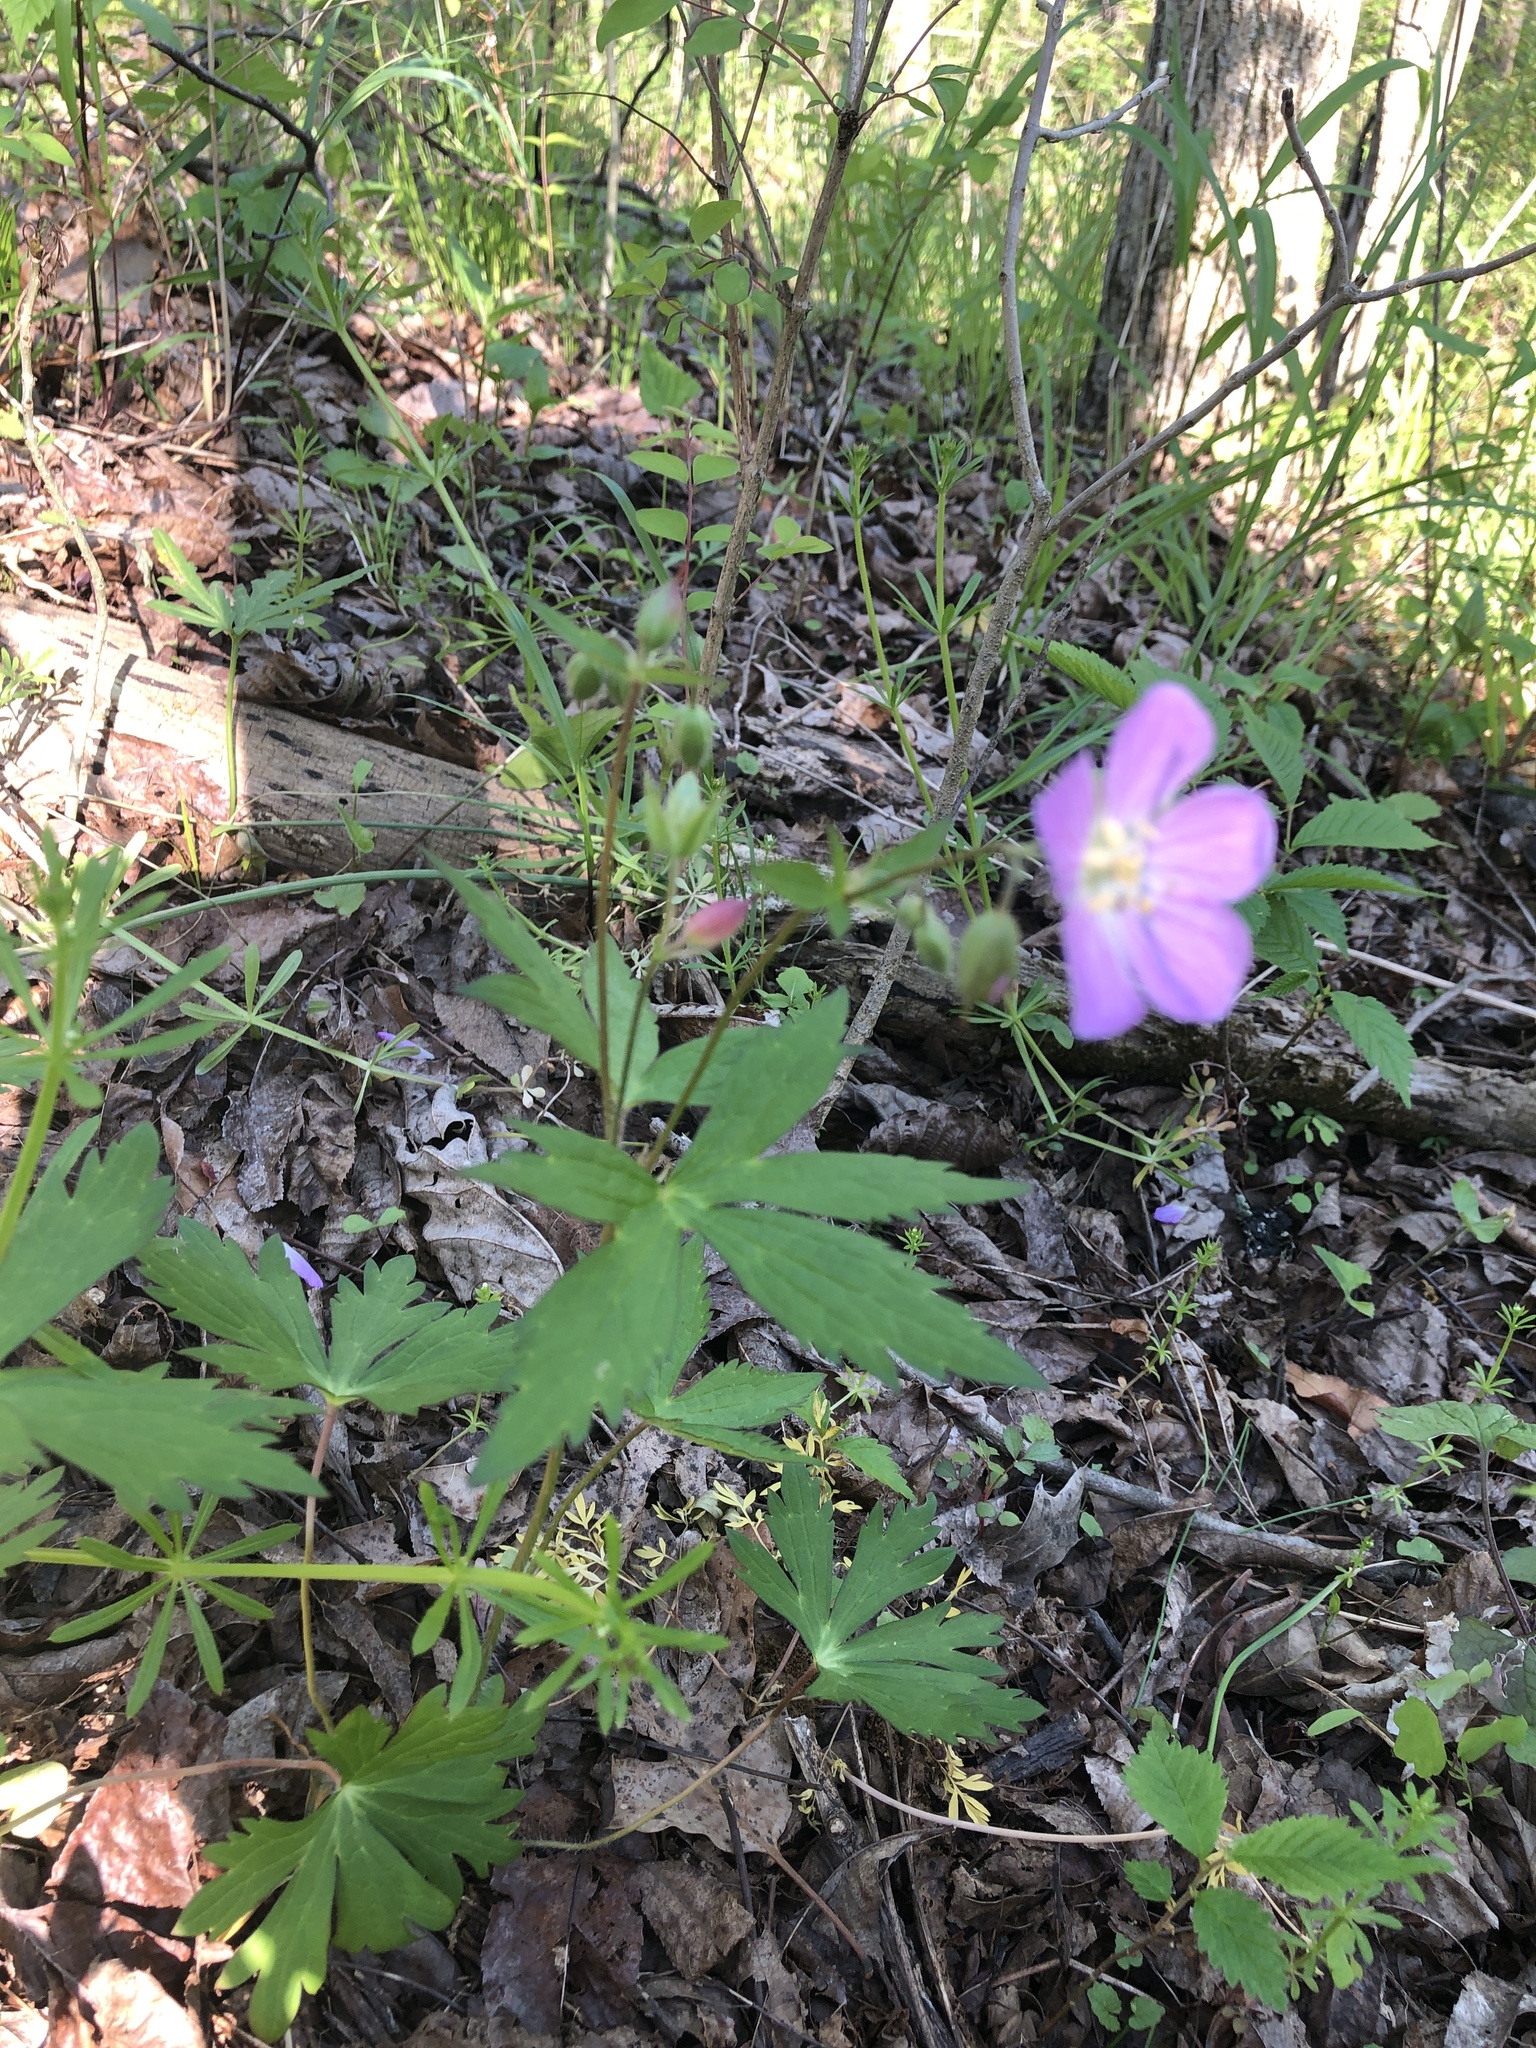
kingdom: Plantae
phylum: Tracheophyta
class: Magnoliopsida
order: Geraniales
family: Geraniaceae
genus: Geranium
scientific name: Geranium maculatum
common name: Spotted geranium
